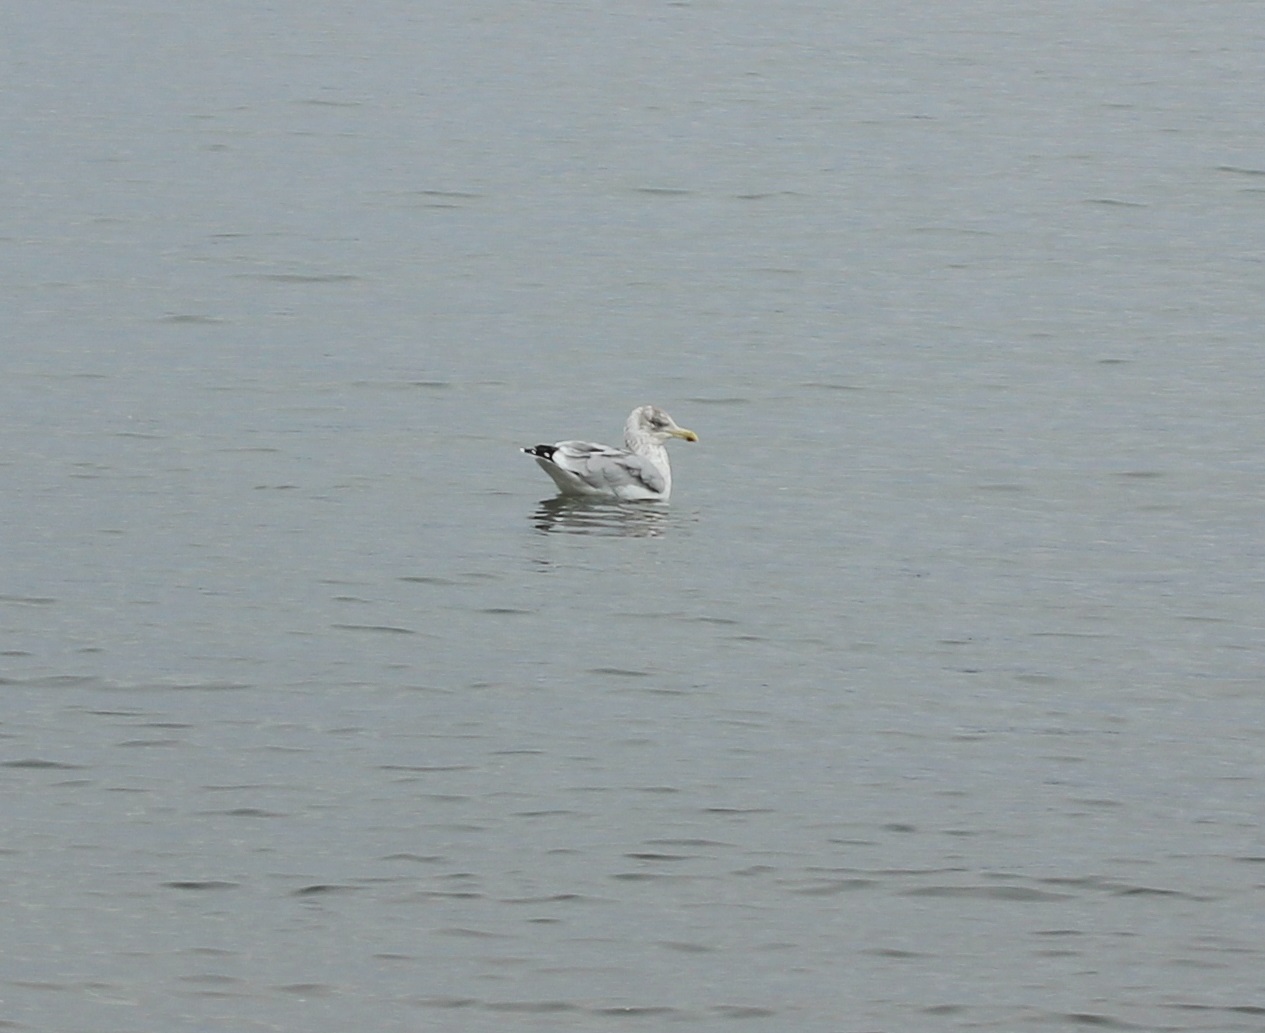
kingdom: Animalia
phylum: Chordata
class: Aves
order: Charadriiformes
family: Laridae
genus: Larus
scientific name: Larus argentatus
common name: Herring gull
